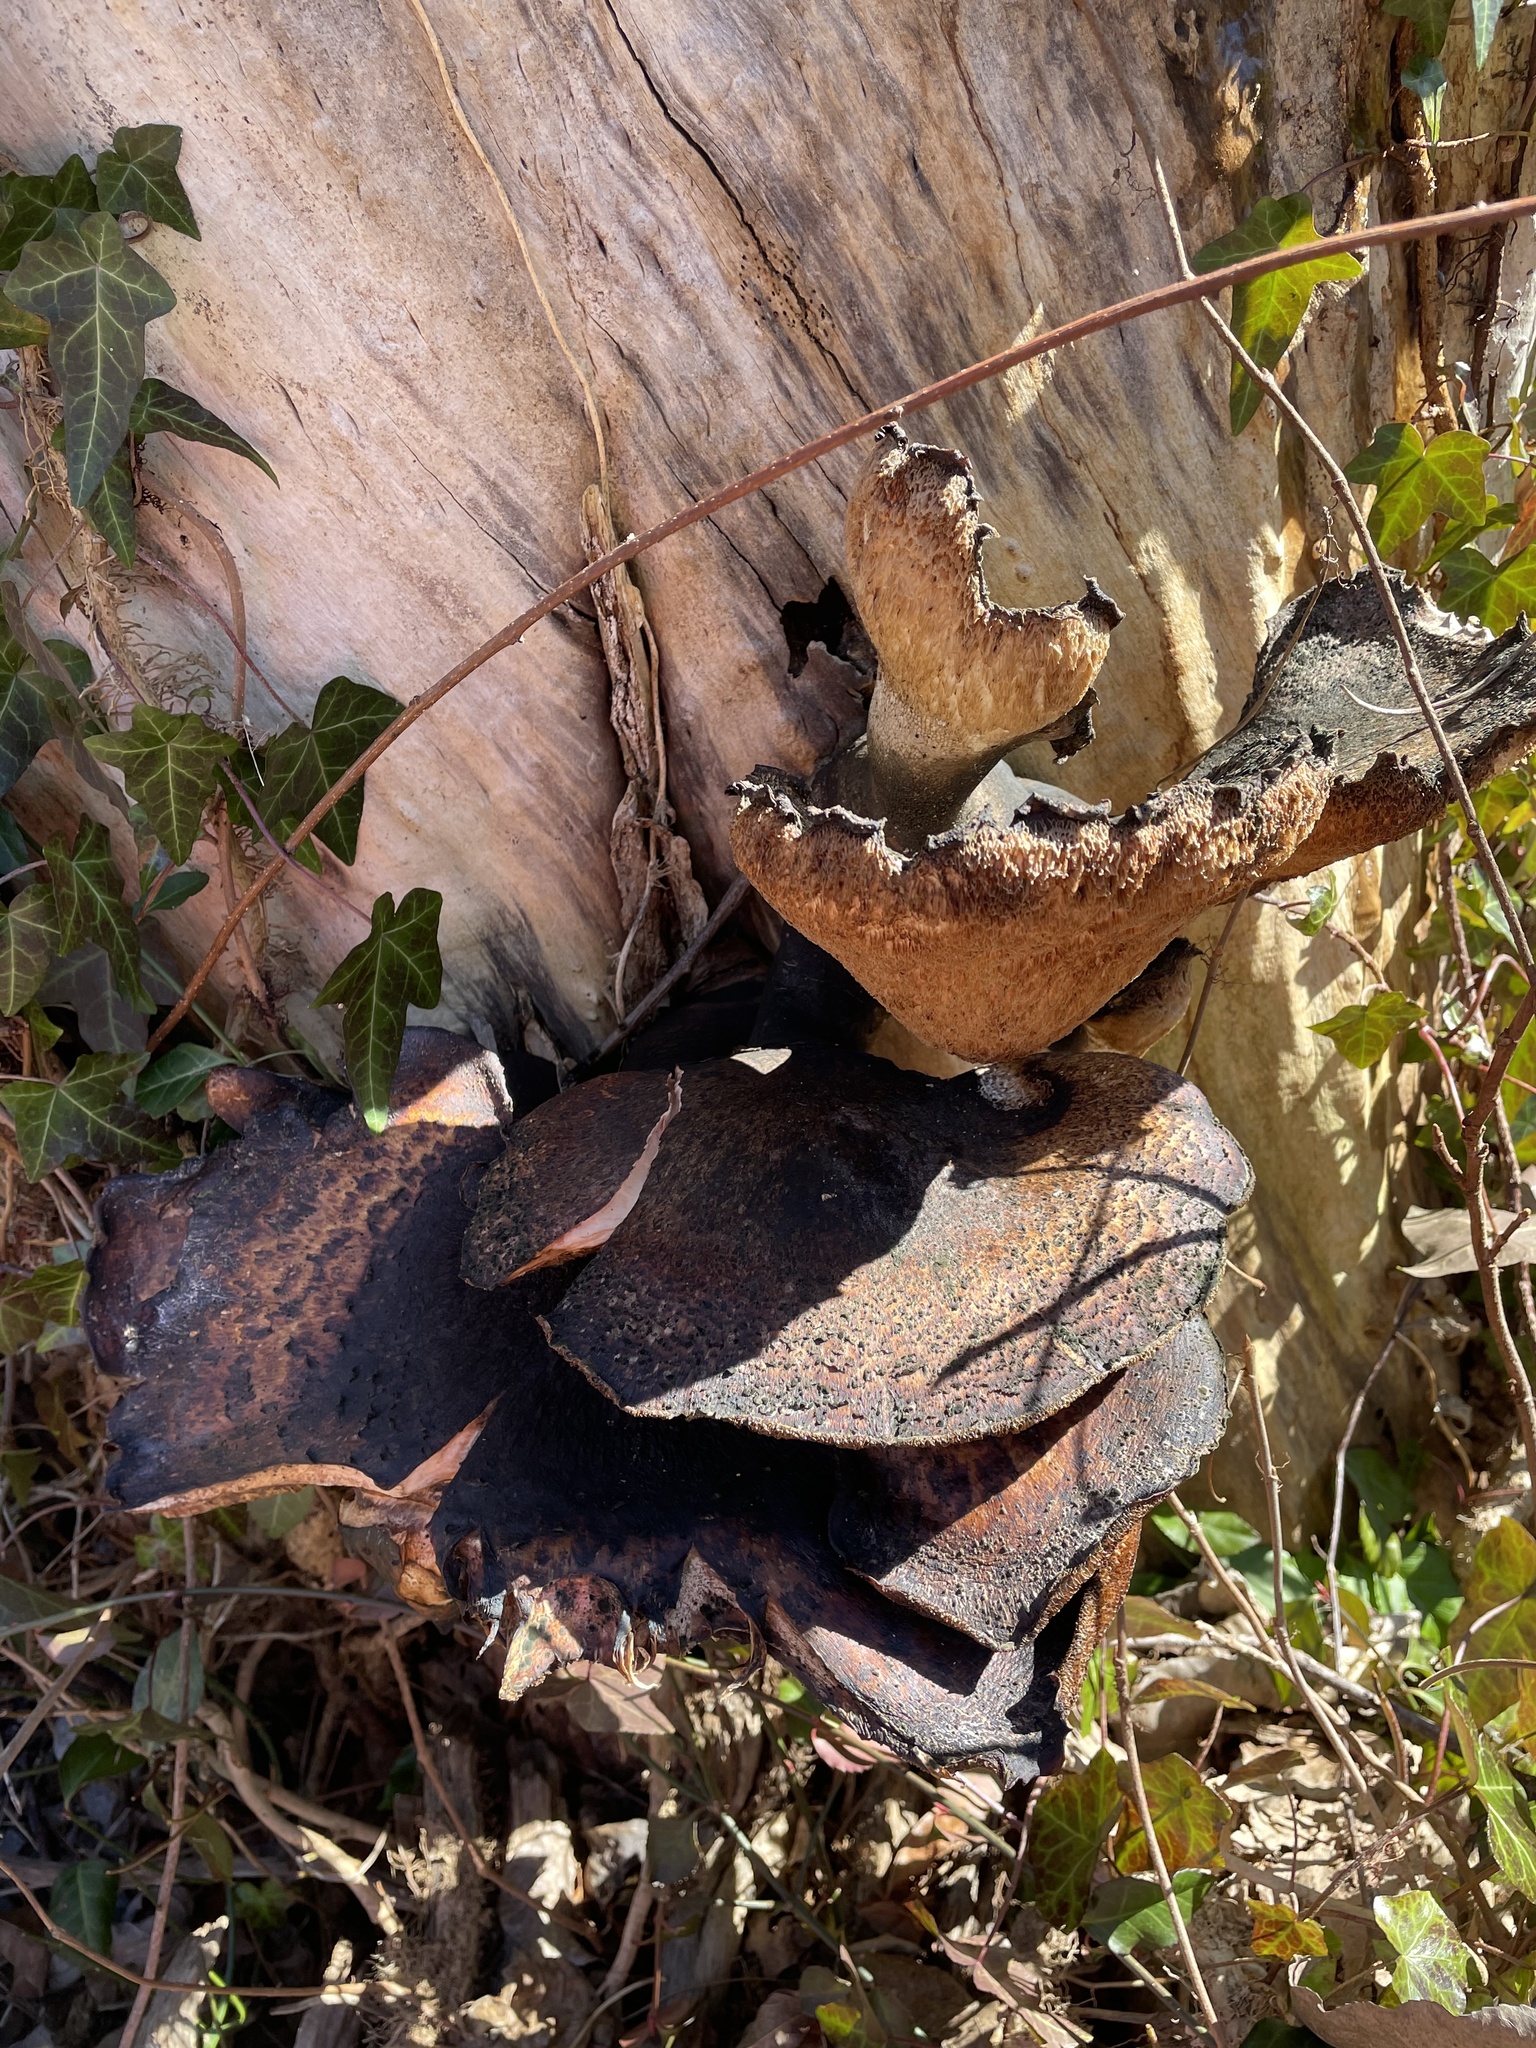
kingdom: Fungi
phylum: Basidiomycota
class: Agaricomycetes
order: Polyporales
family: Polyporaceae
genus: Cerioporus
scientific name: Cerioporus squamosus
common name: Dryad's saddle
